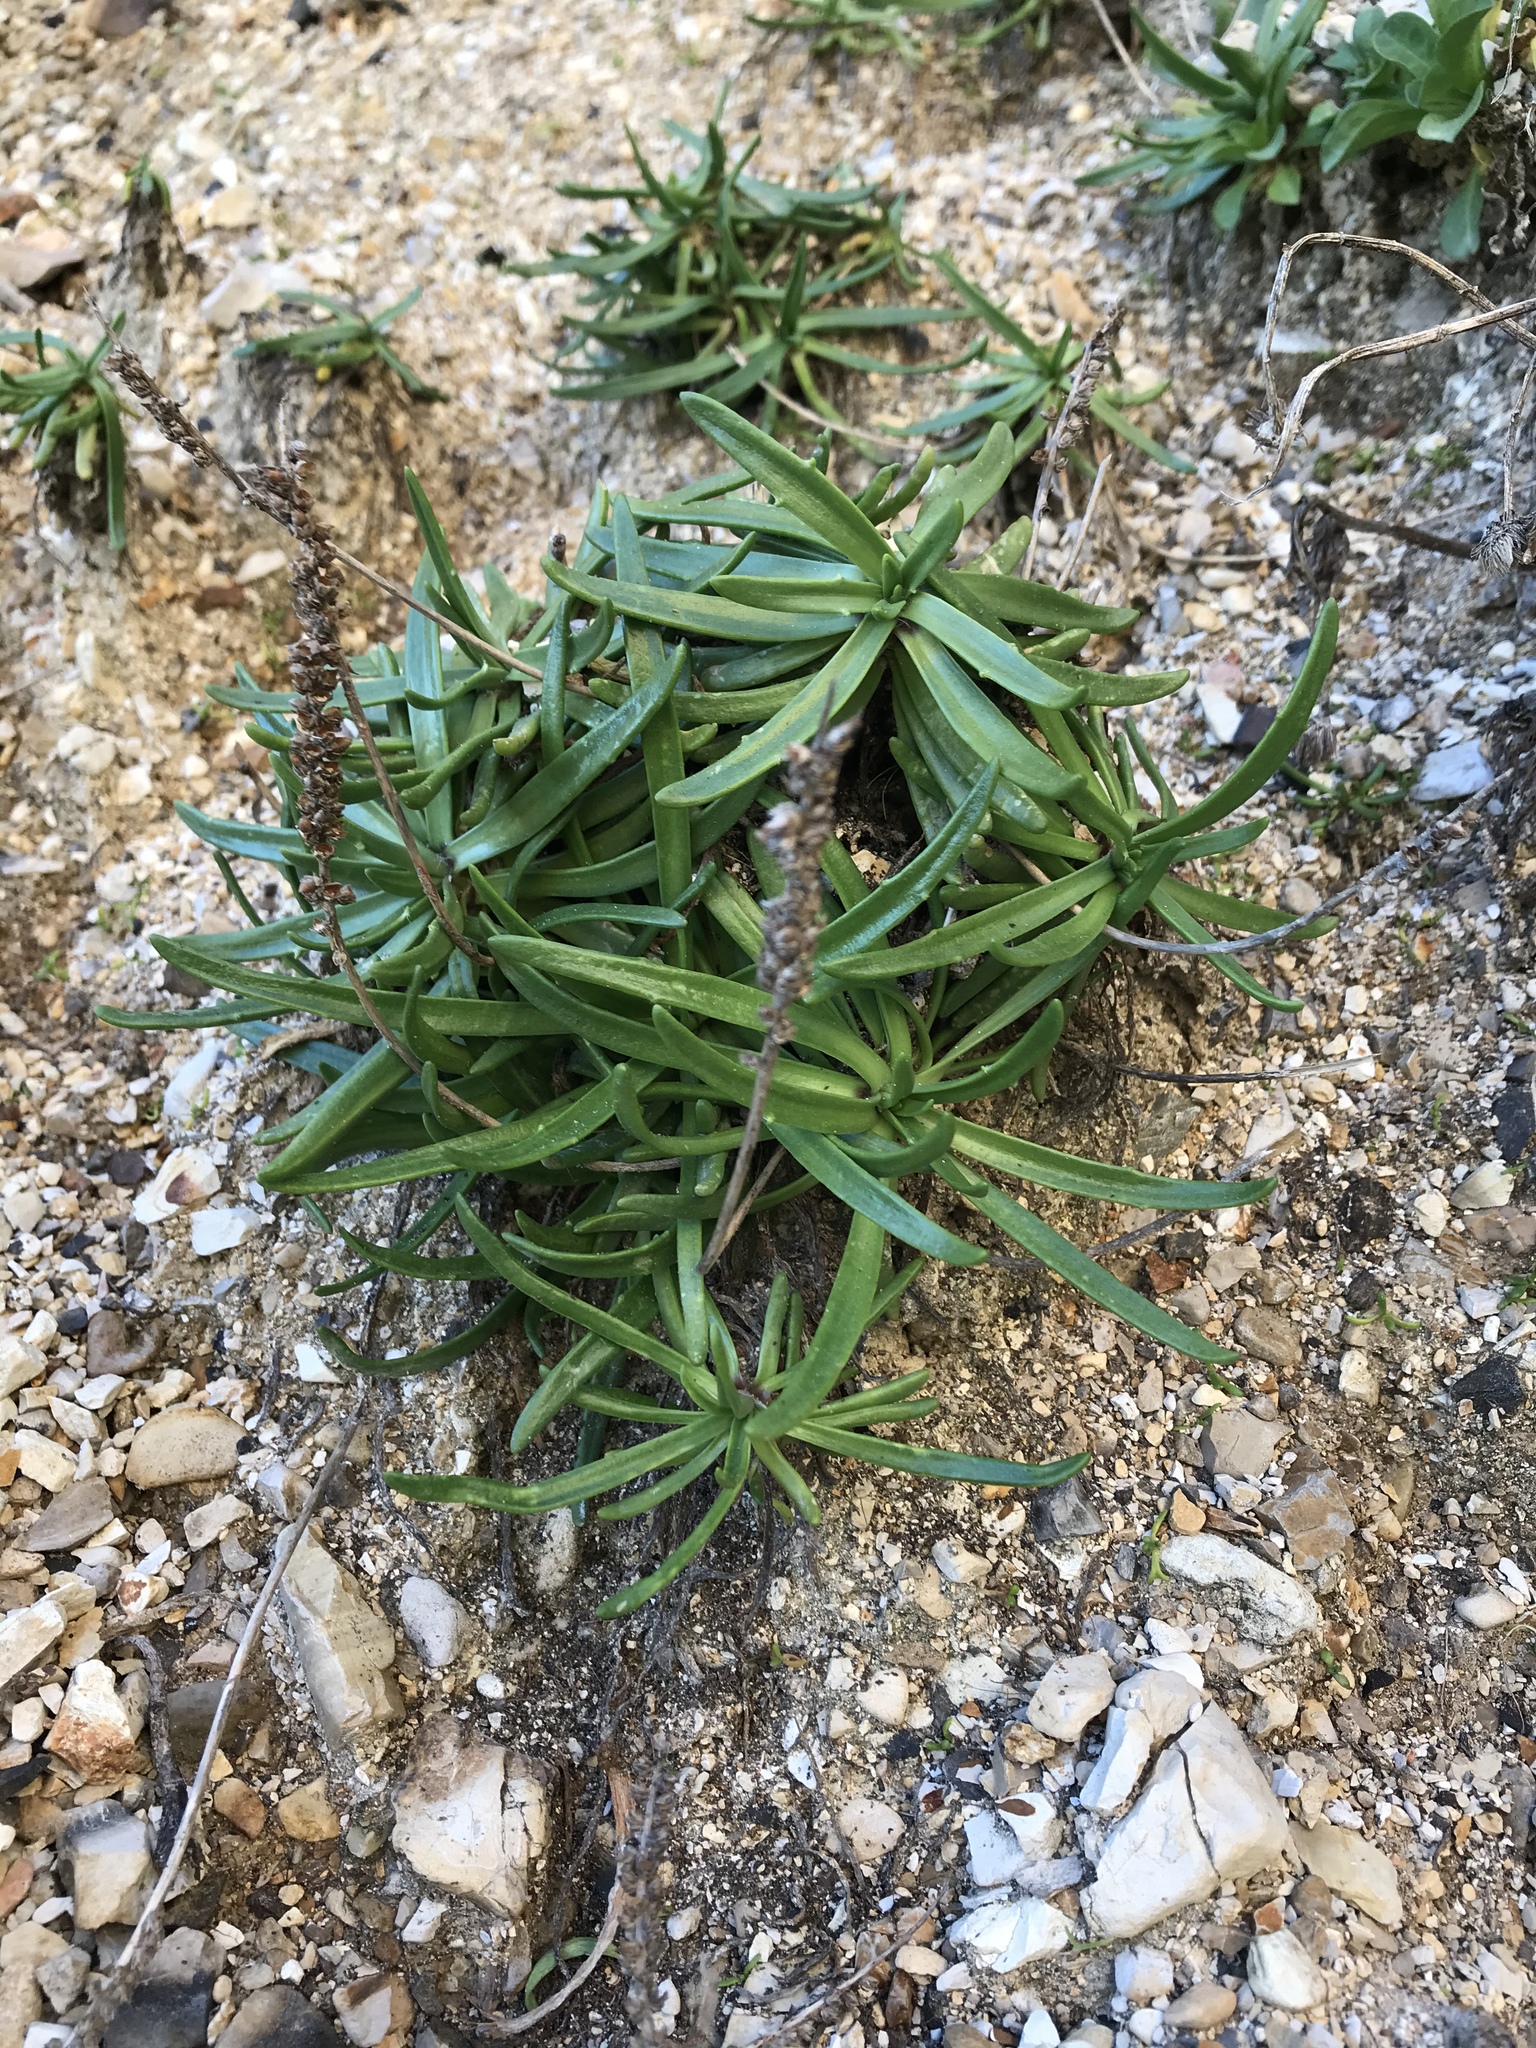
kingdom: Plantae
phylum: Tracheophyta
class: Magnoliopsida
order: Lamiales
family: Plantaginaceae
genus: Plantago
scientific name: Plantago maritima
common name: Sea plantain
